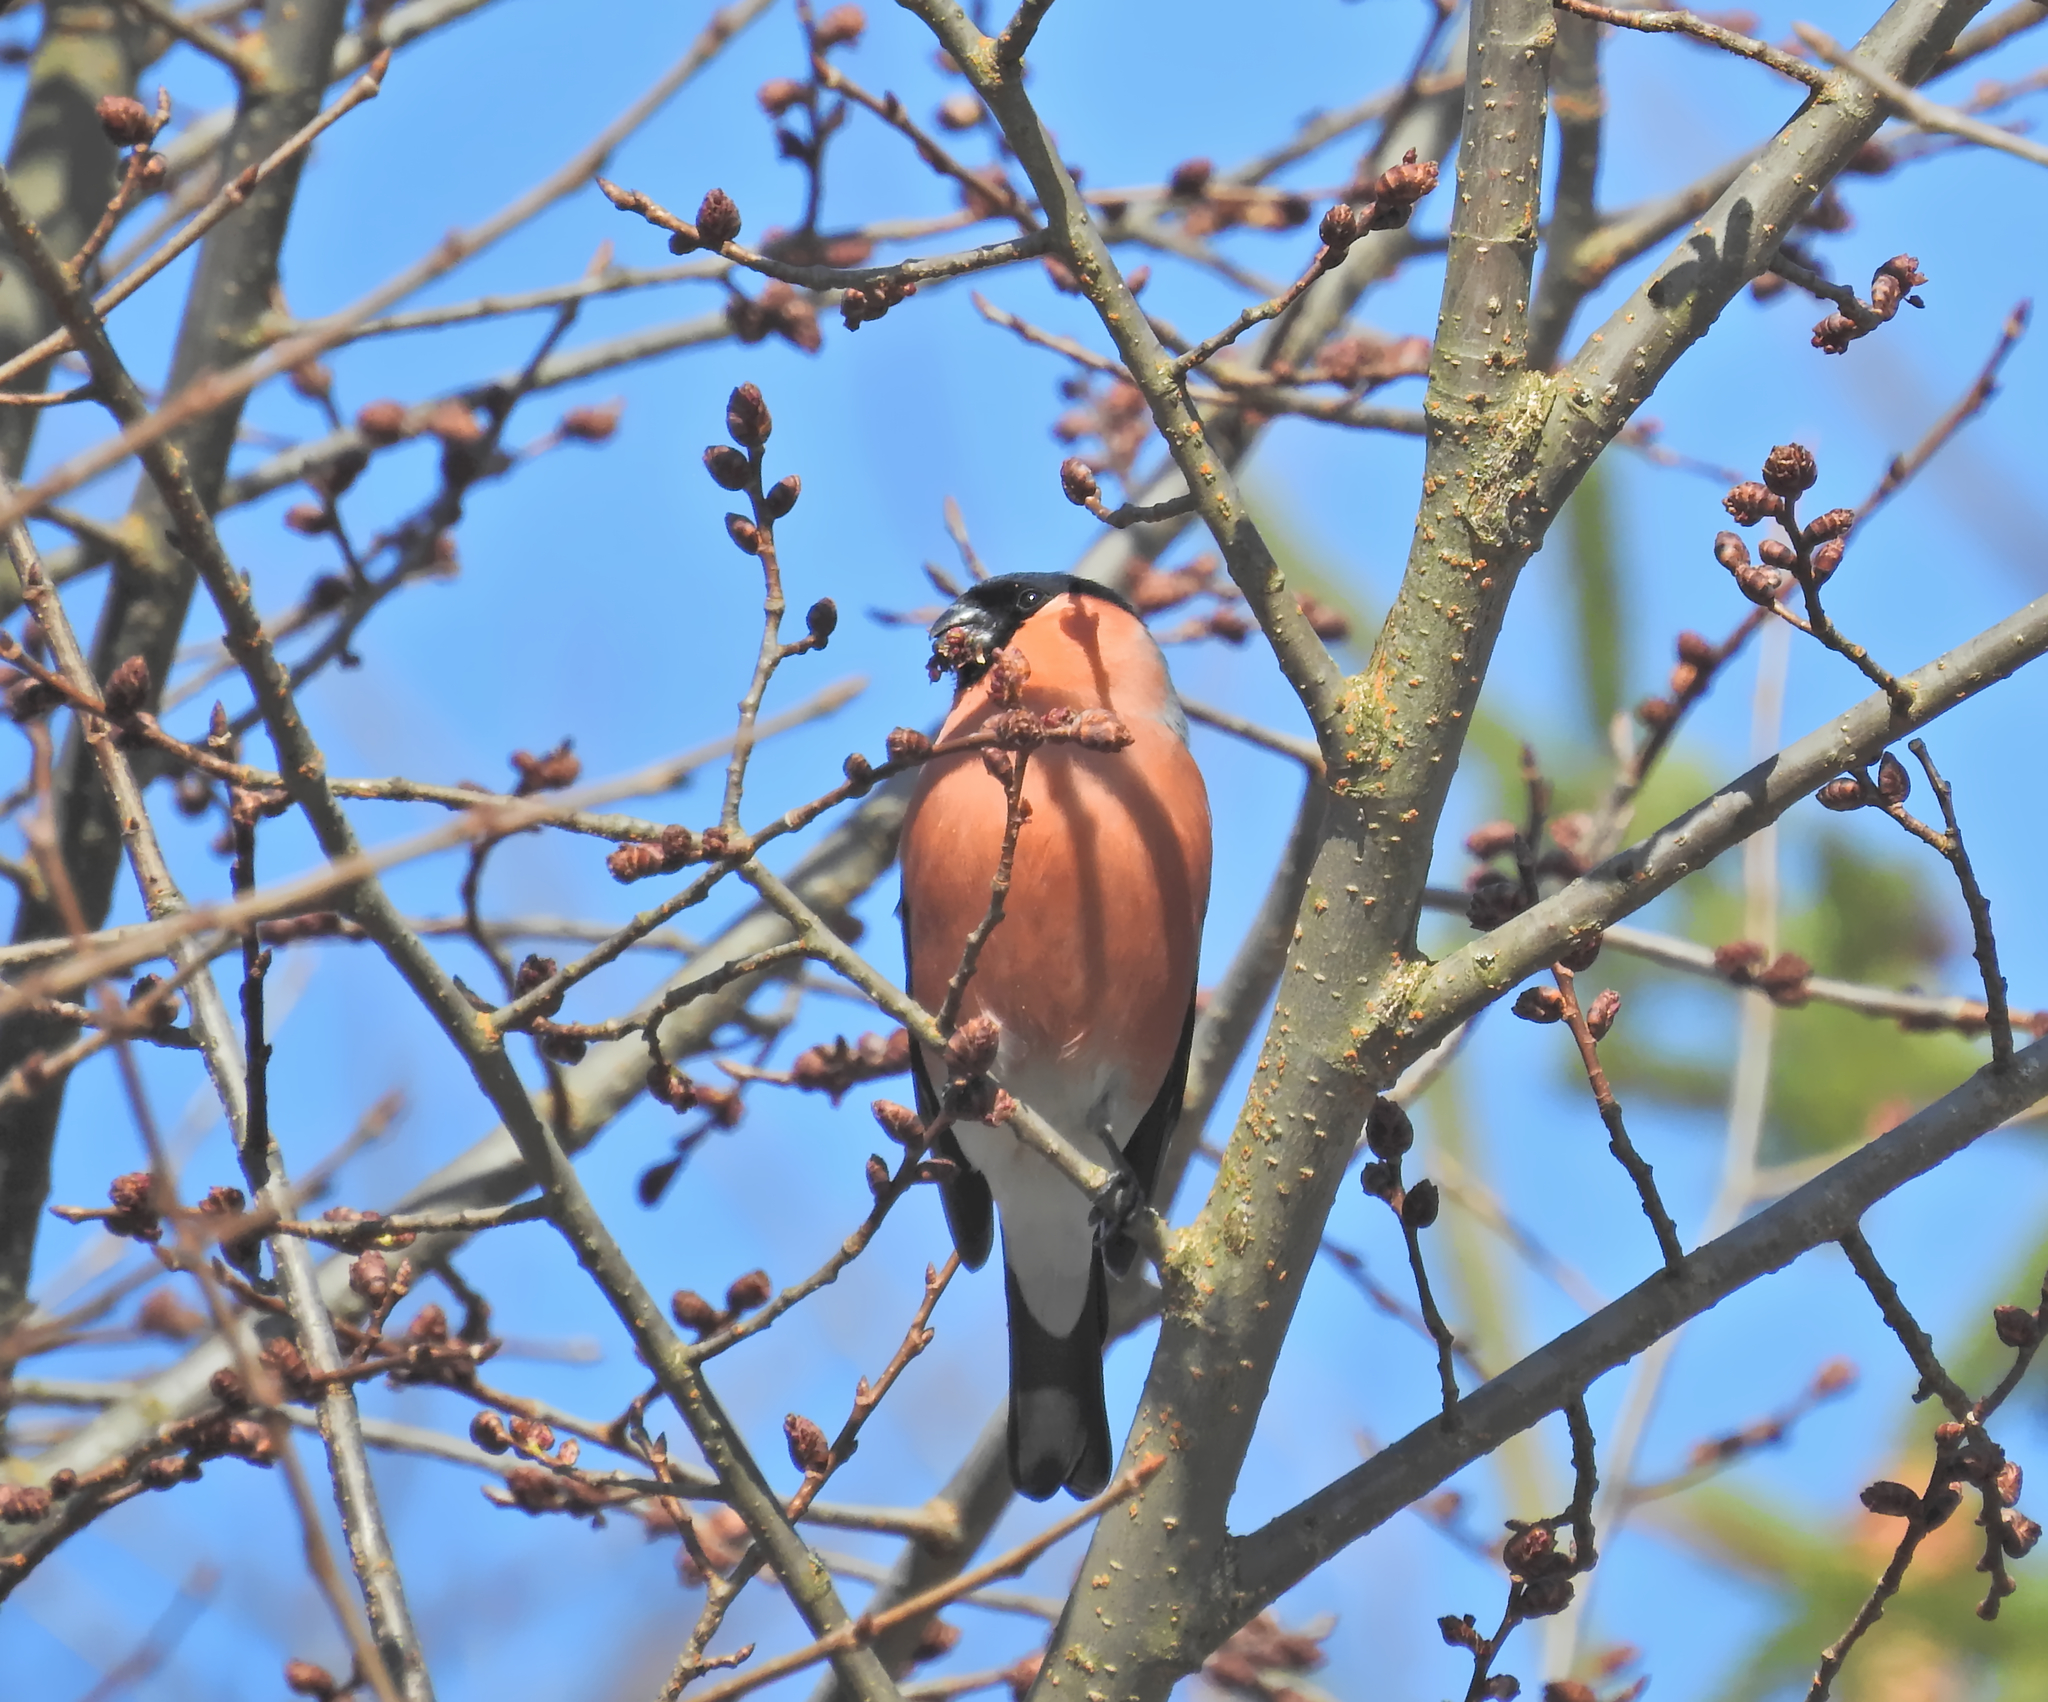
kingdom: Animalia
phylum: Chordata
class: Aves
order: Passeriformes
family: Fringillidae
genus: Pyrrhula
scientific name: Pyrrhula pyrrhula
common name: Eurasian bullfinch
